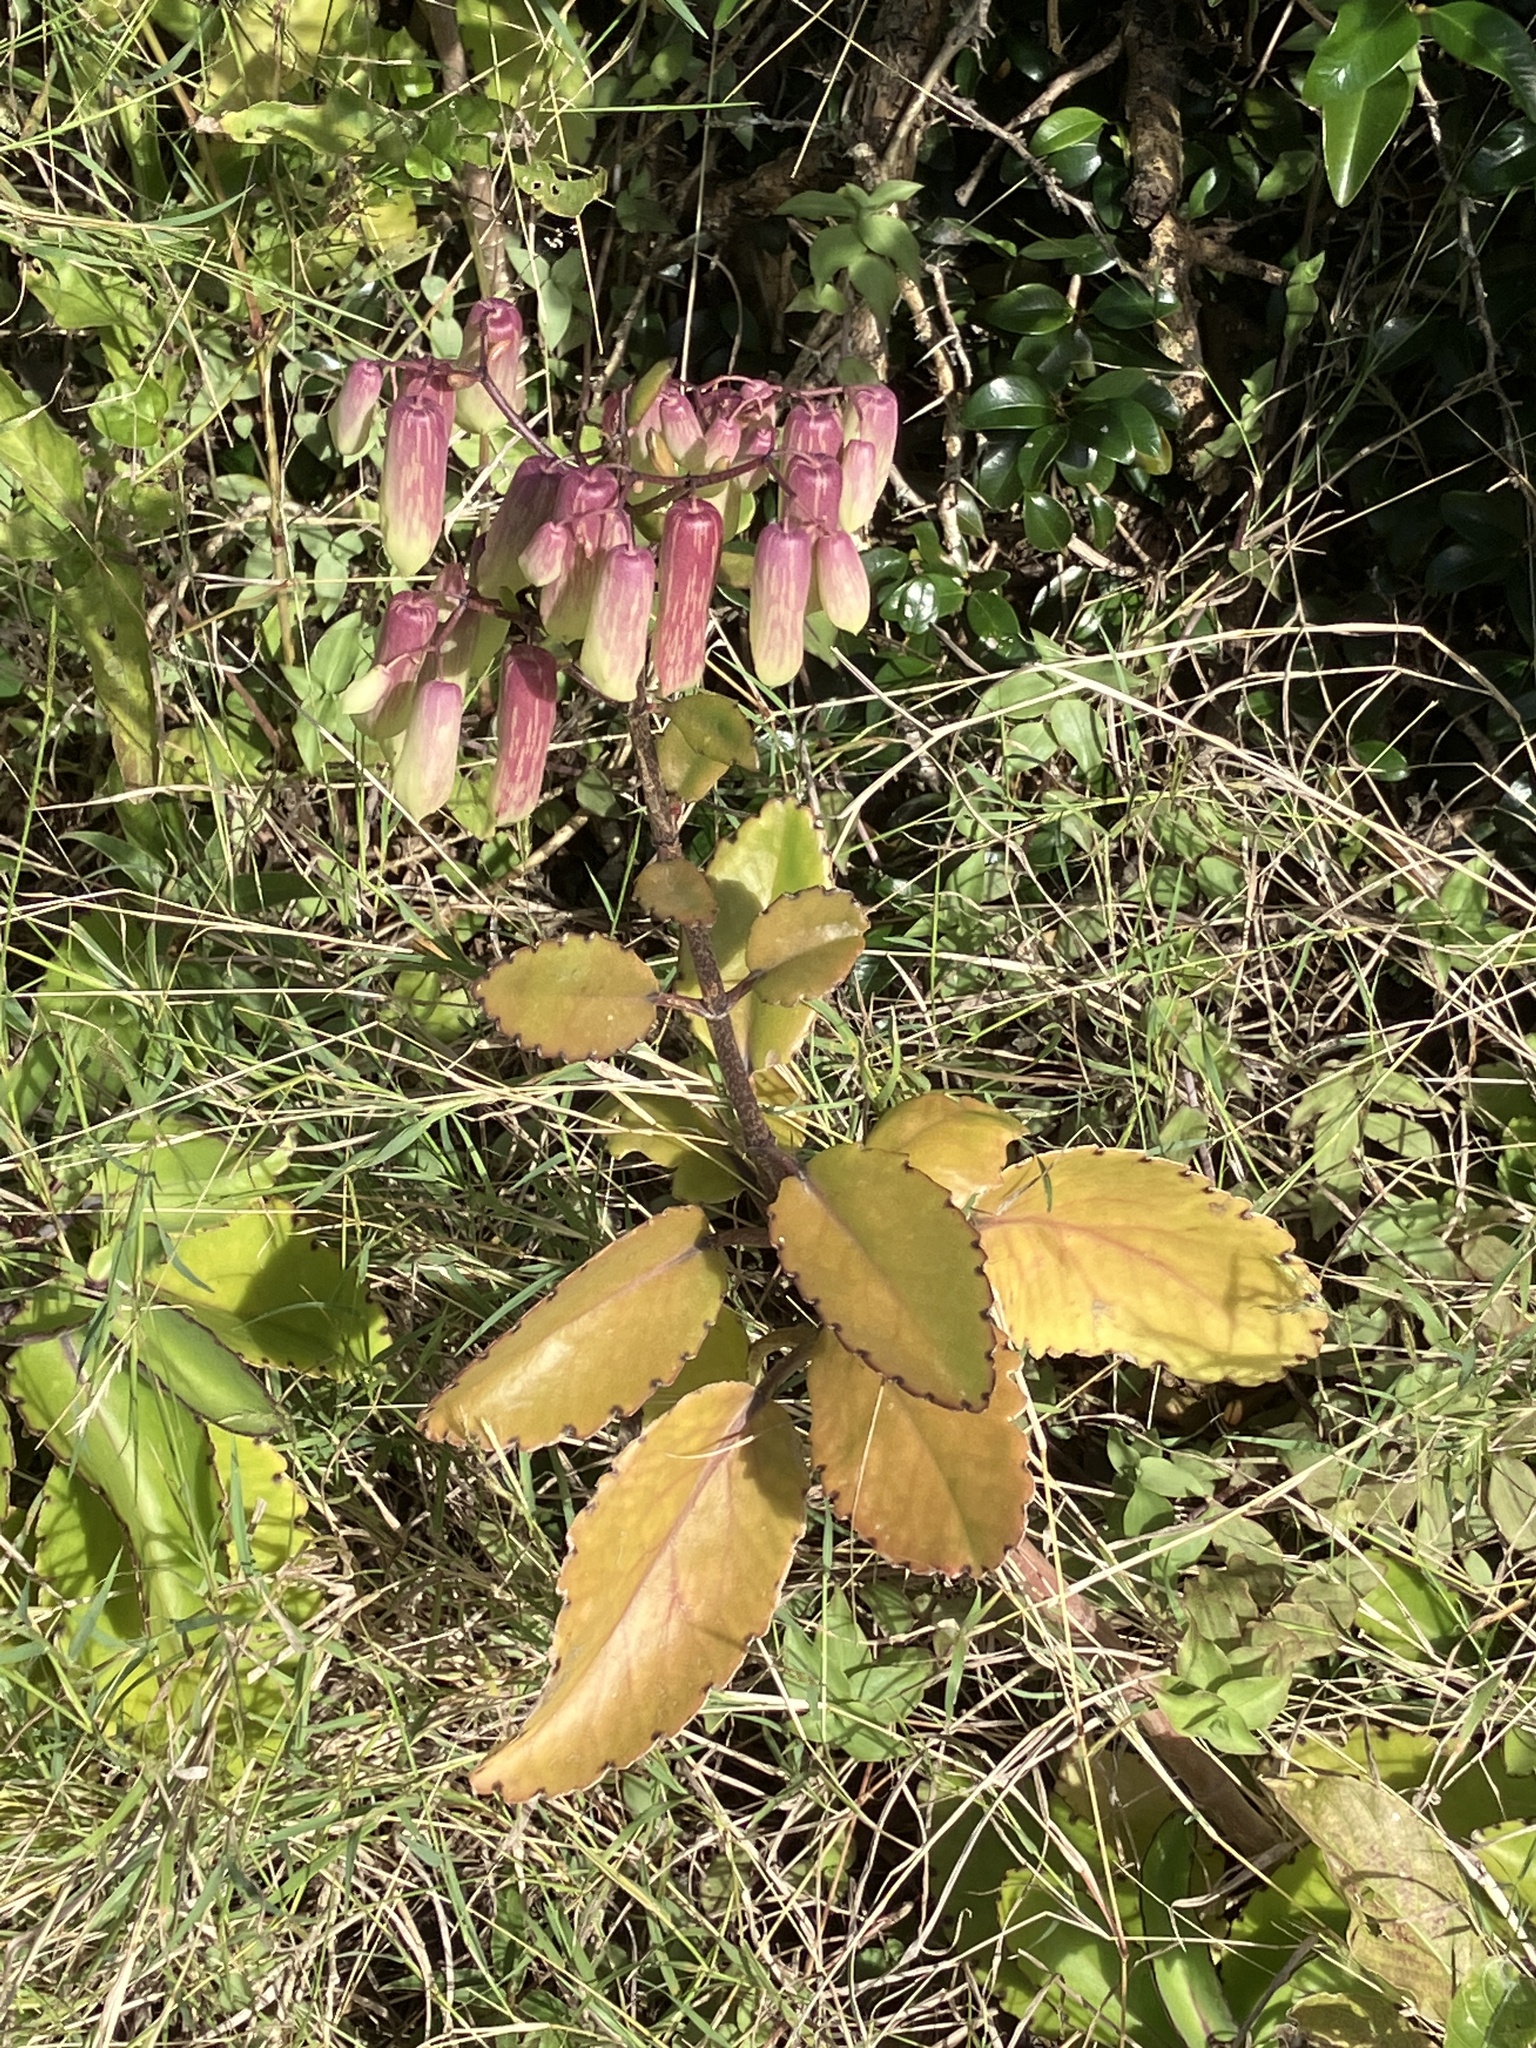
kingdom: Plantae
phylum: Tracheophyta
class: Magnoliopsida
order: Saxifragales
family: Crassulaceae
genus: Kalanchoe
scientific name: Kalanchoe pinnata
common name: Cathedral bells
